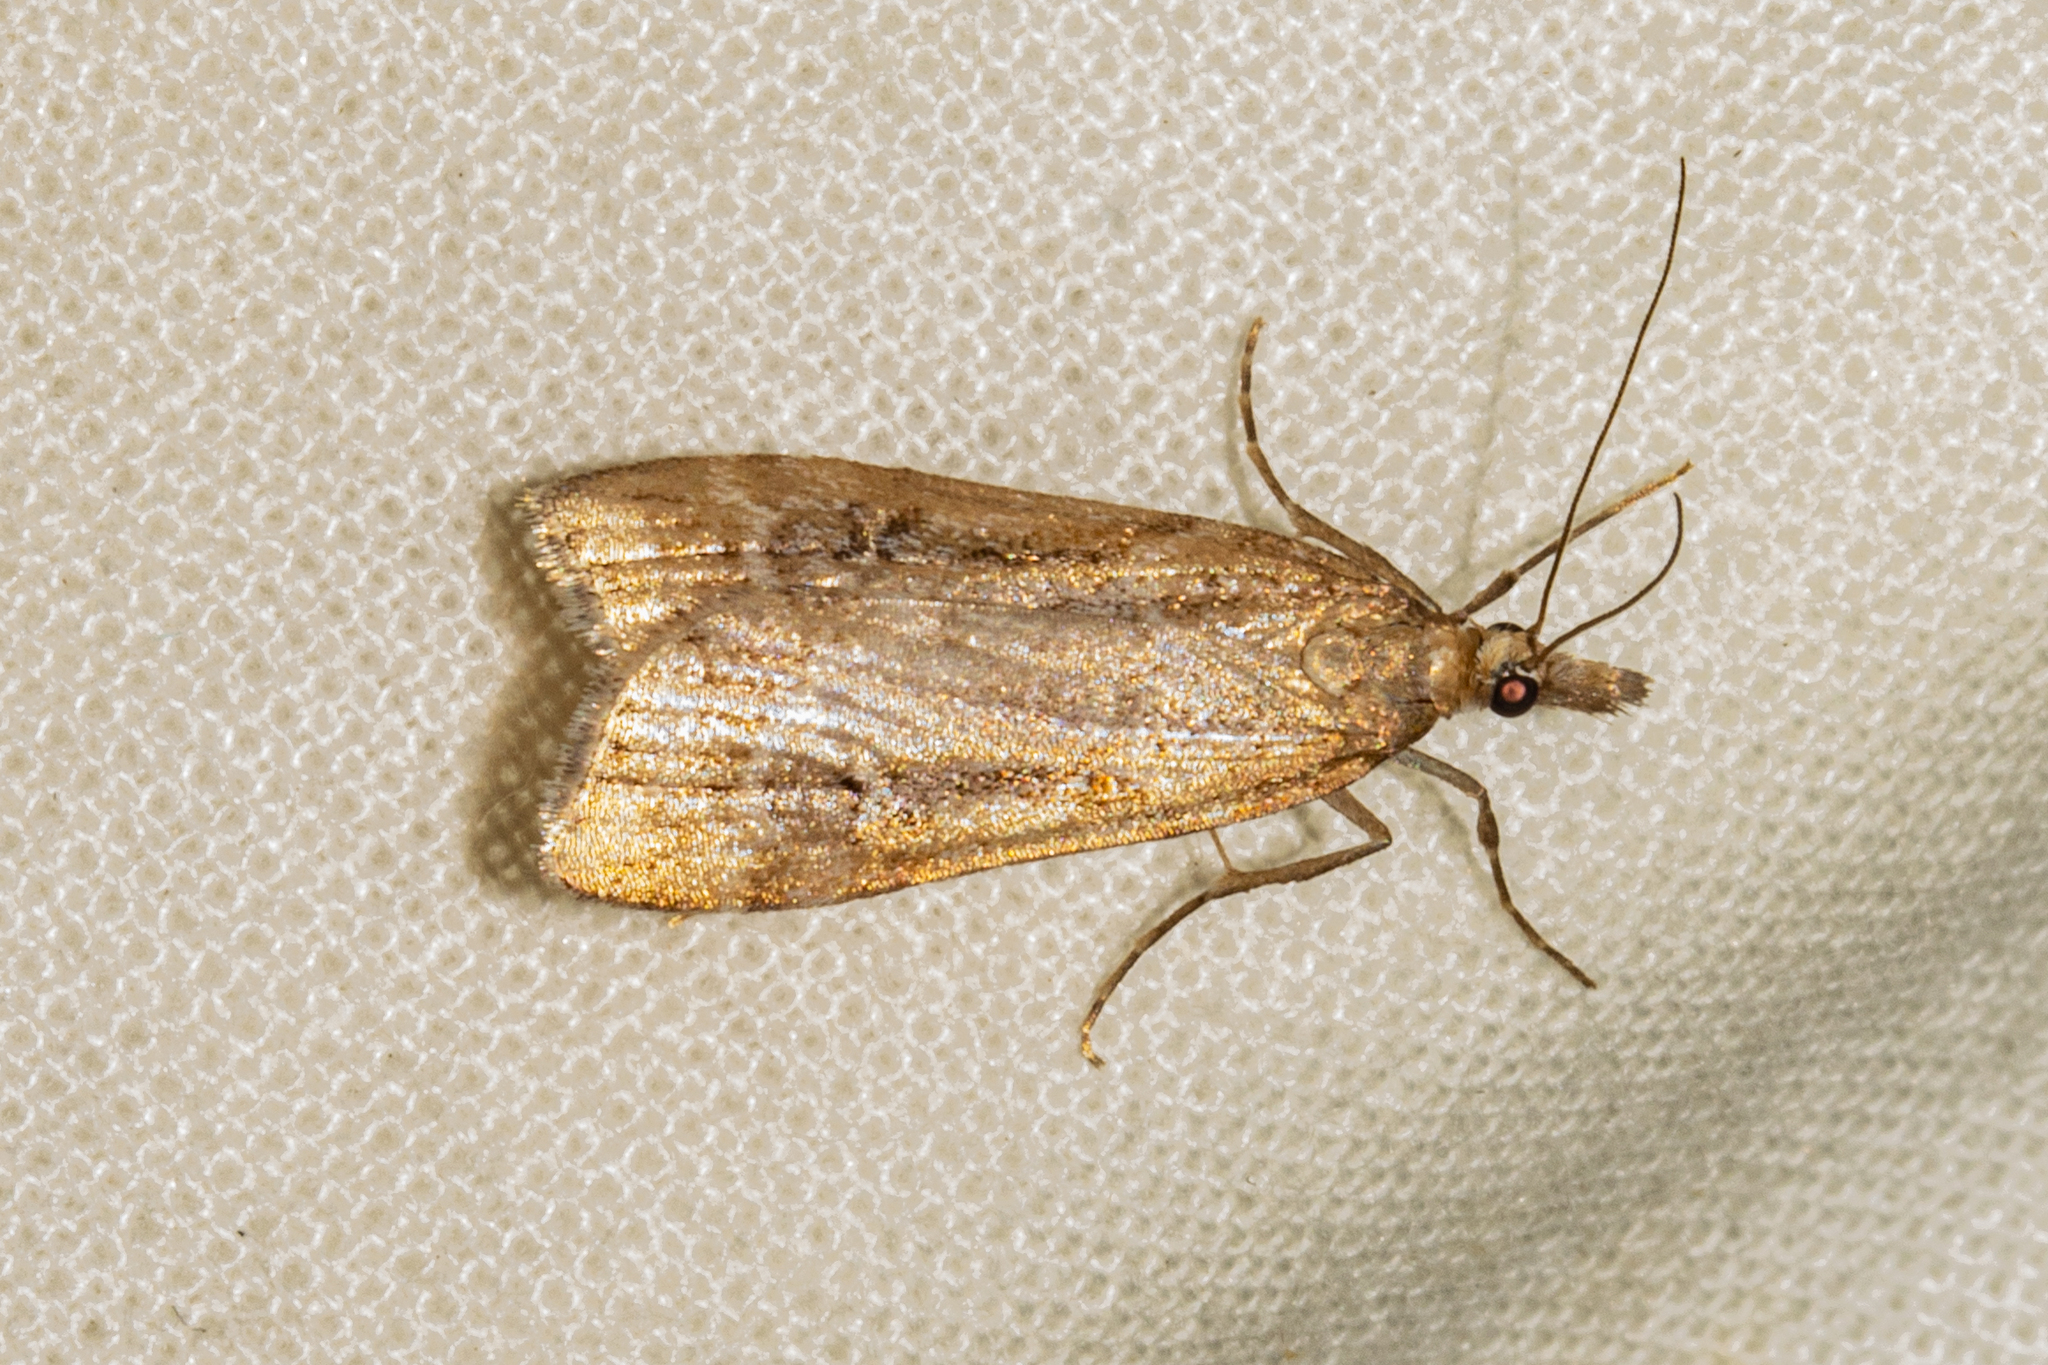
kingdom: Animalia
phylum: Arthropoda
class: Insecta
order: Lepidoptera
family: Crambidae
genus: Eudonia
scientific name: Eudonia chalara
